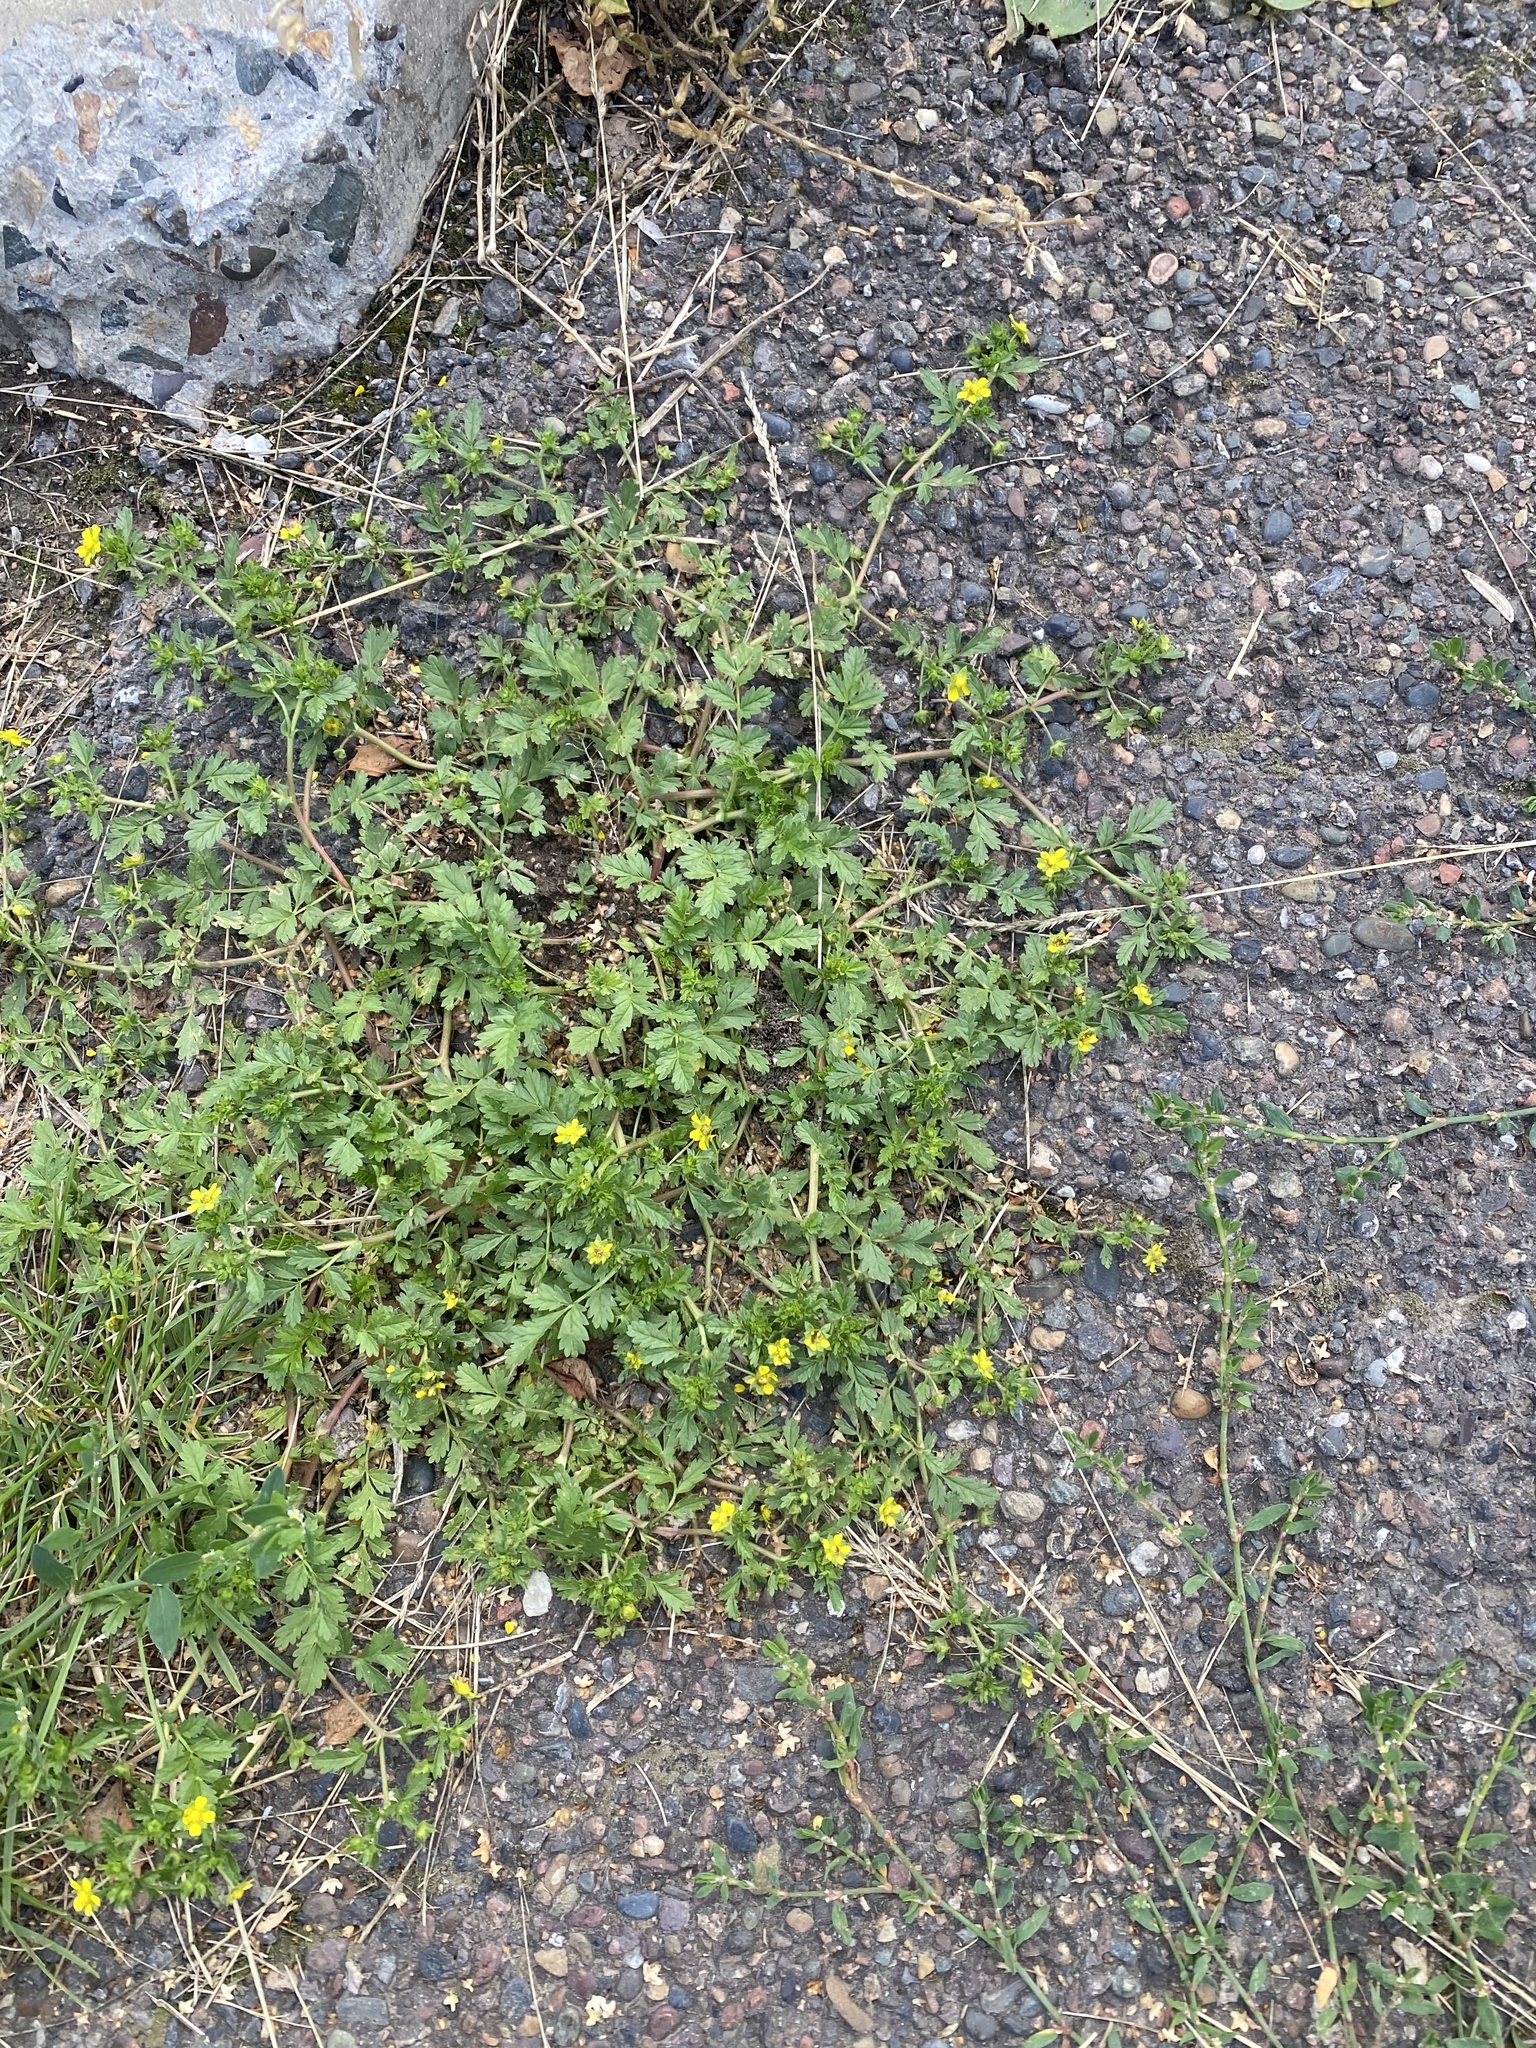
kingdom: Plantae
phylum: Tracheophyta
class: Magnoliopsida
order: Rosales
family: Rosaceae
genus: Potentilla
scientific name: Potentilla supina
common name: Prostrate cinquefoil
